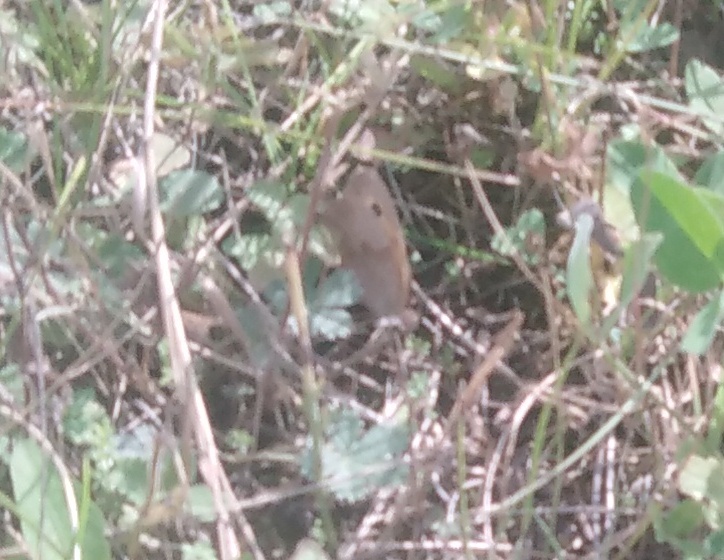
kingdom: Animalia
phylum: Arthropoda
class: Insecta
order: Lepidoptera
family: Nymphalidae
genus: Maniola
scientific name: Maniola jurtina
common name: Meadow brown
